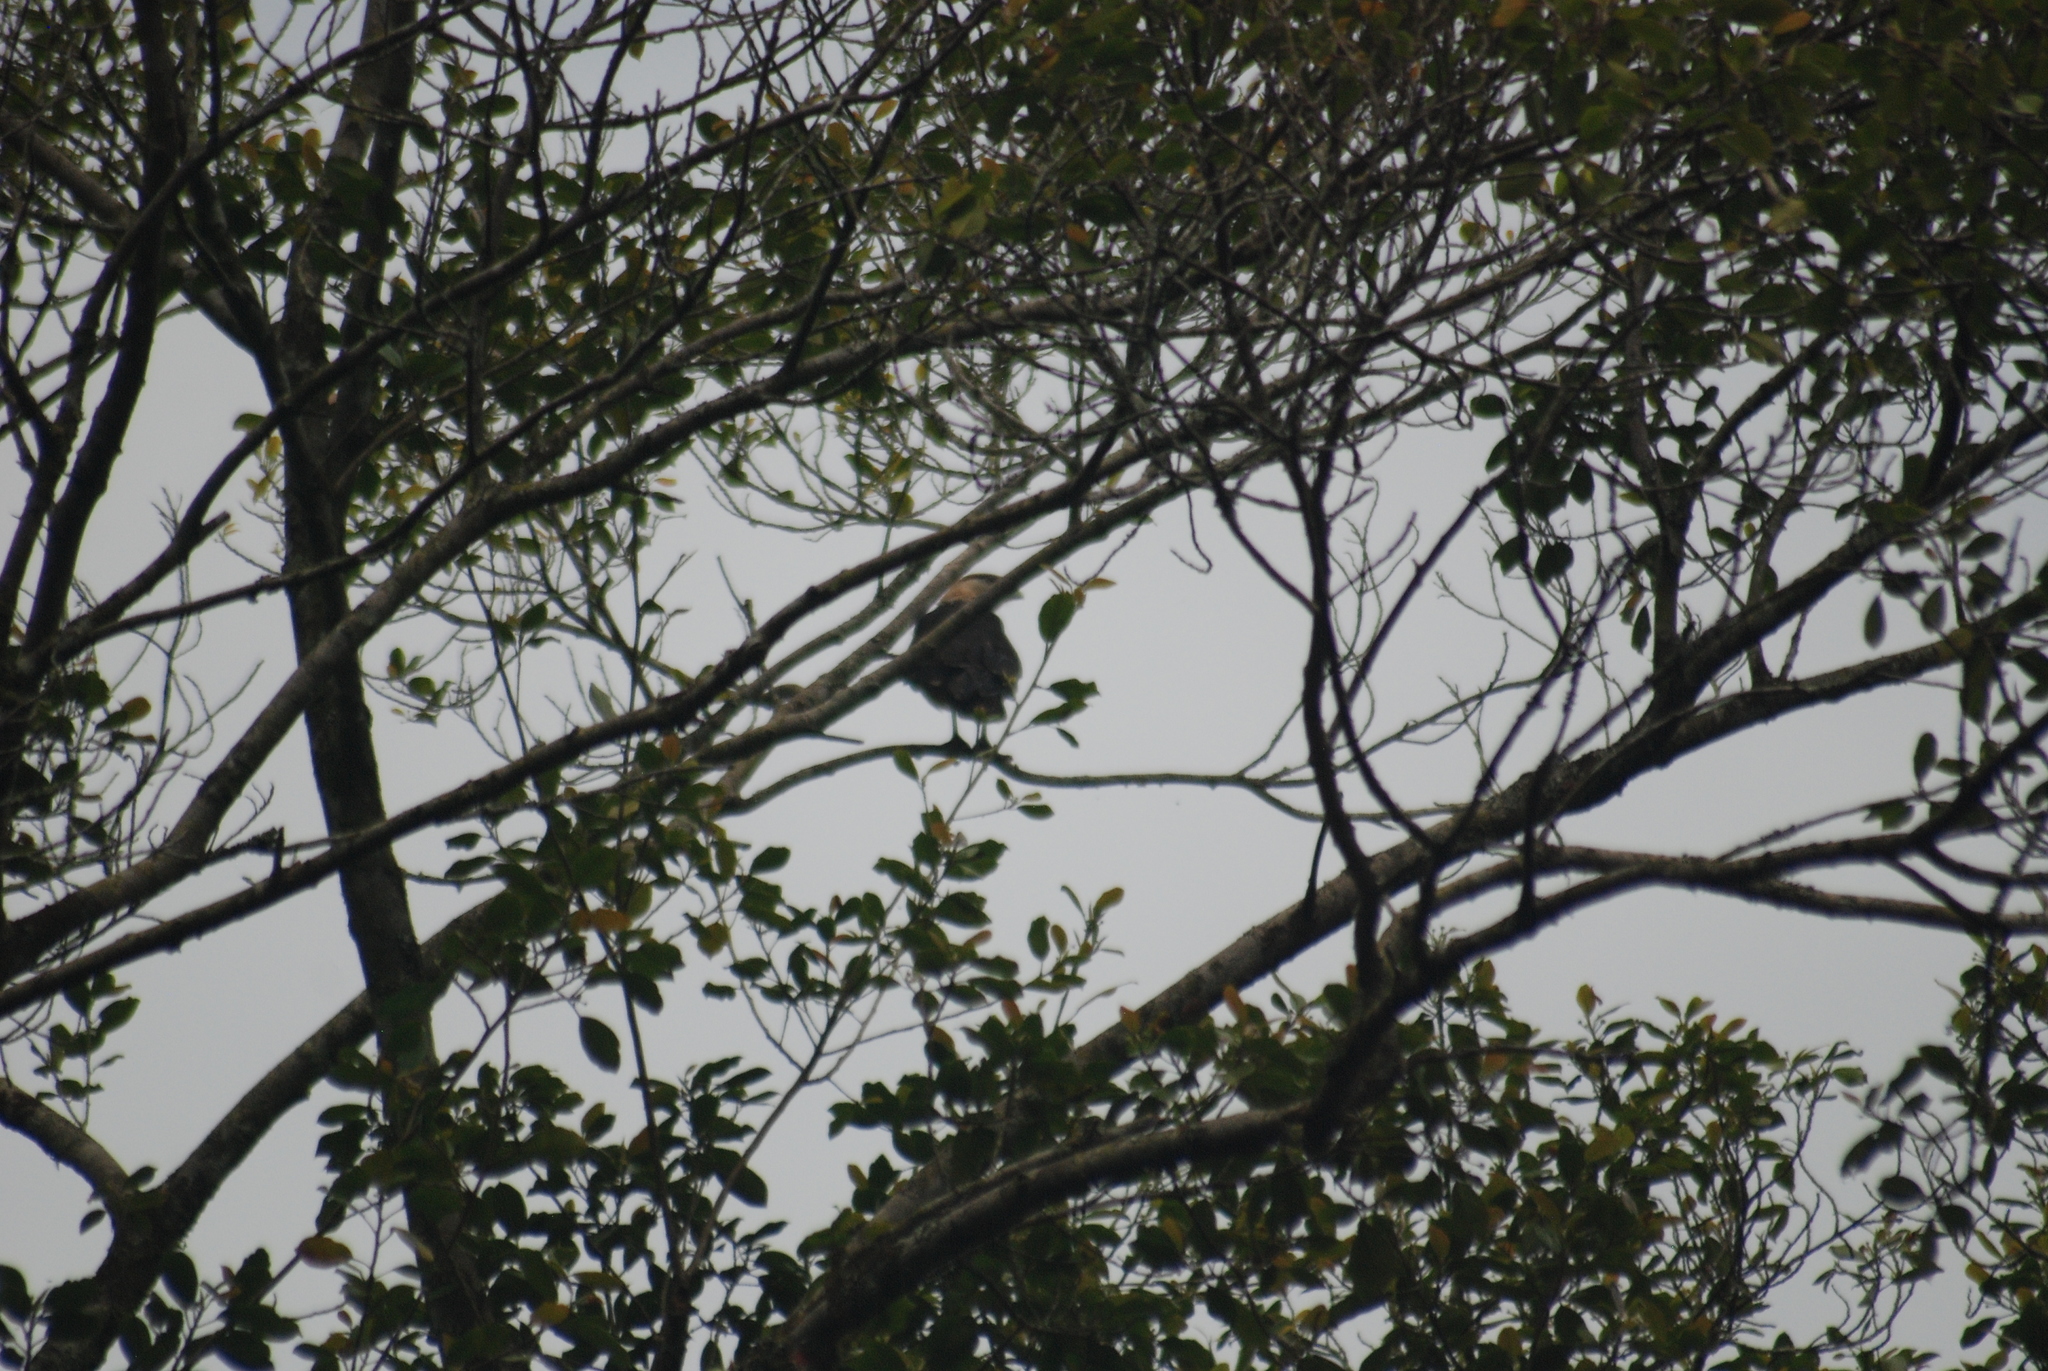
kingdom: Animalia
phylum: Chordata
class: Aves
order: Falconiformes
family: Falconidae
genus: Daptrius
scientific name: Daptrius
